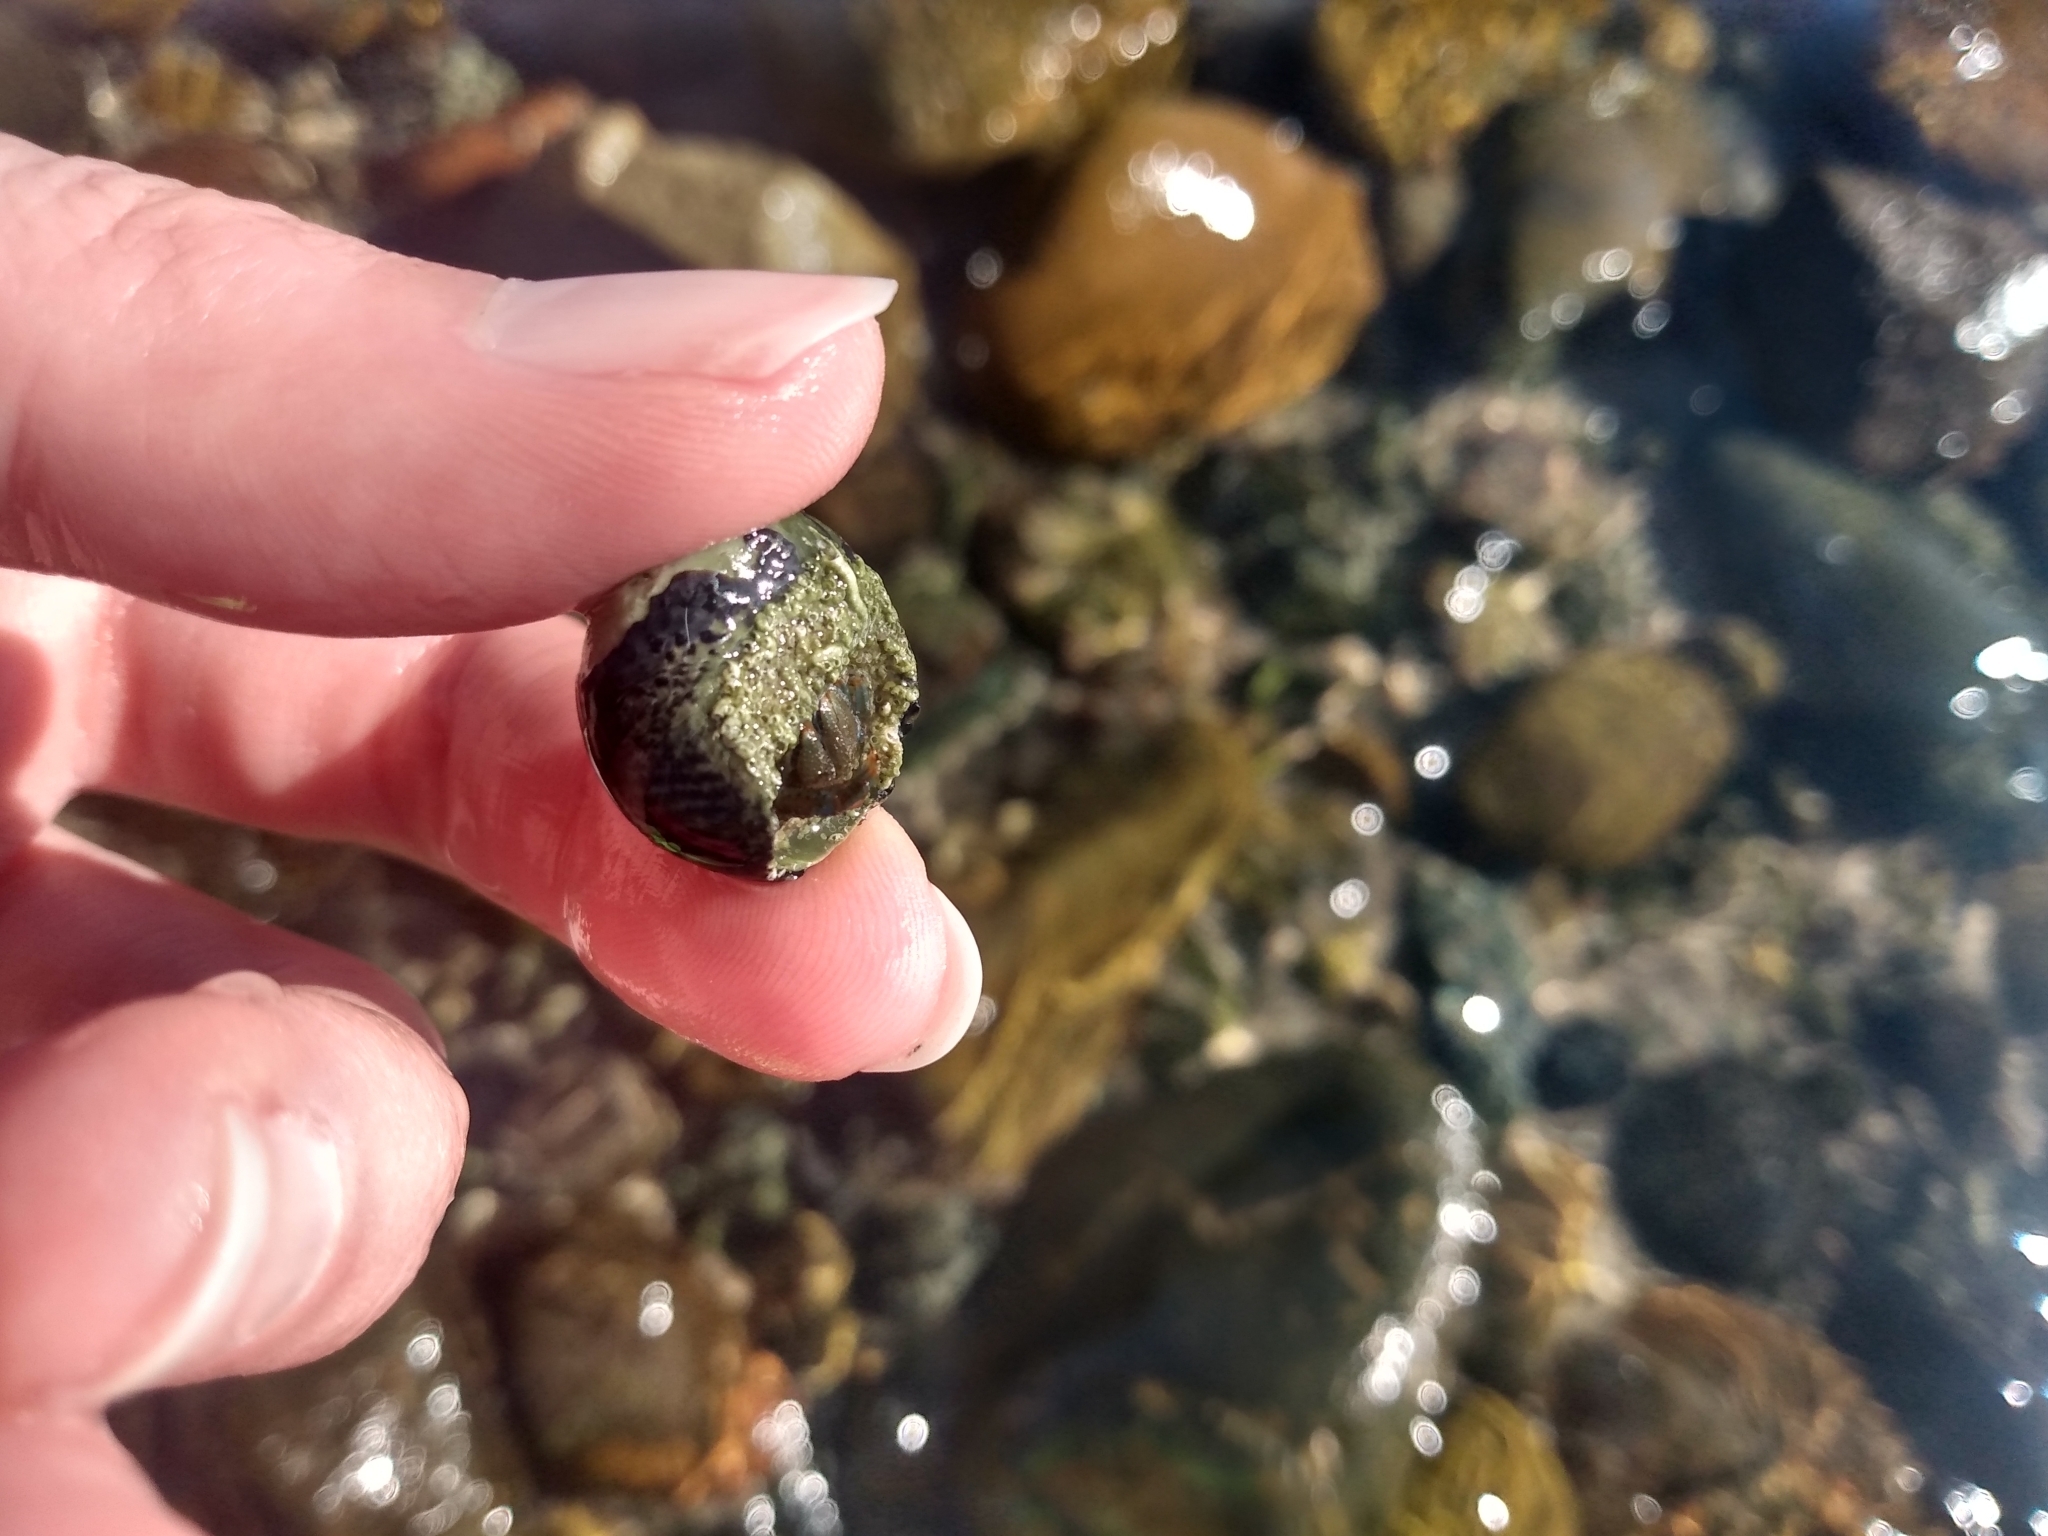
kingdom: Animalia
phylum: Mollusca
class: Gastropoda
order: Trochida
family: Tegulidae
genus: Tegula
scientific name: Tegula gallina
